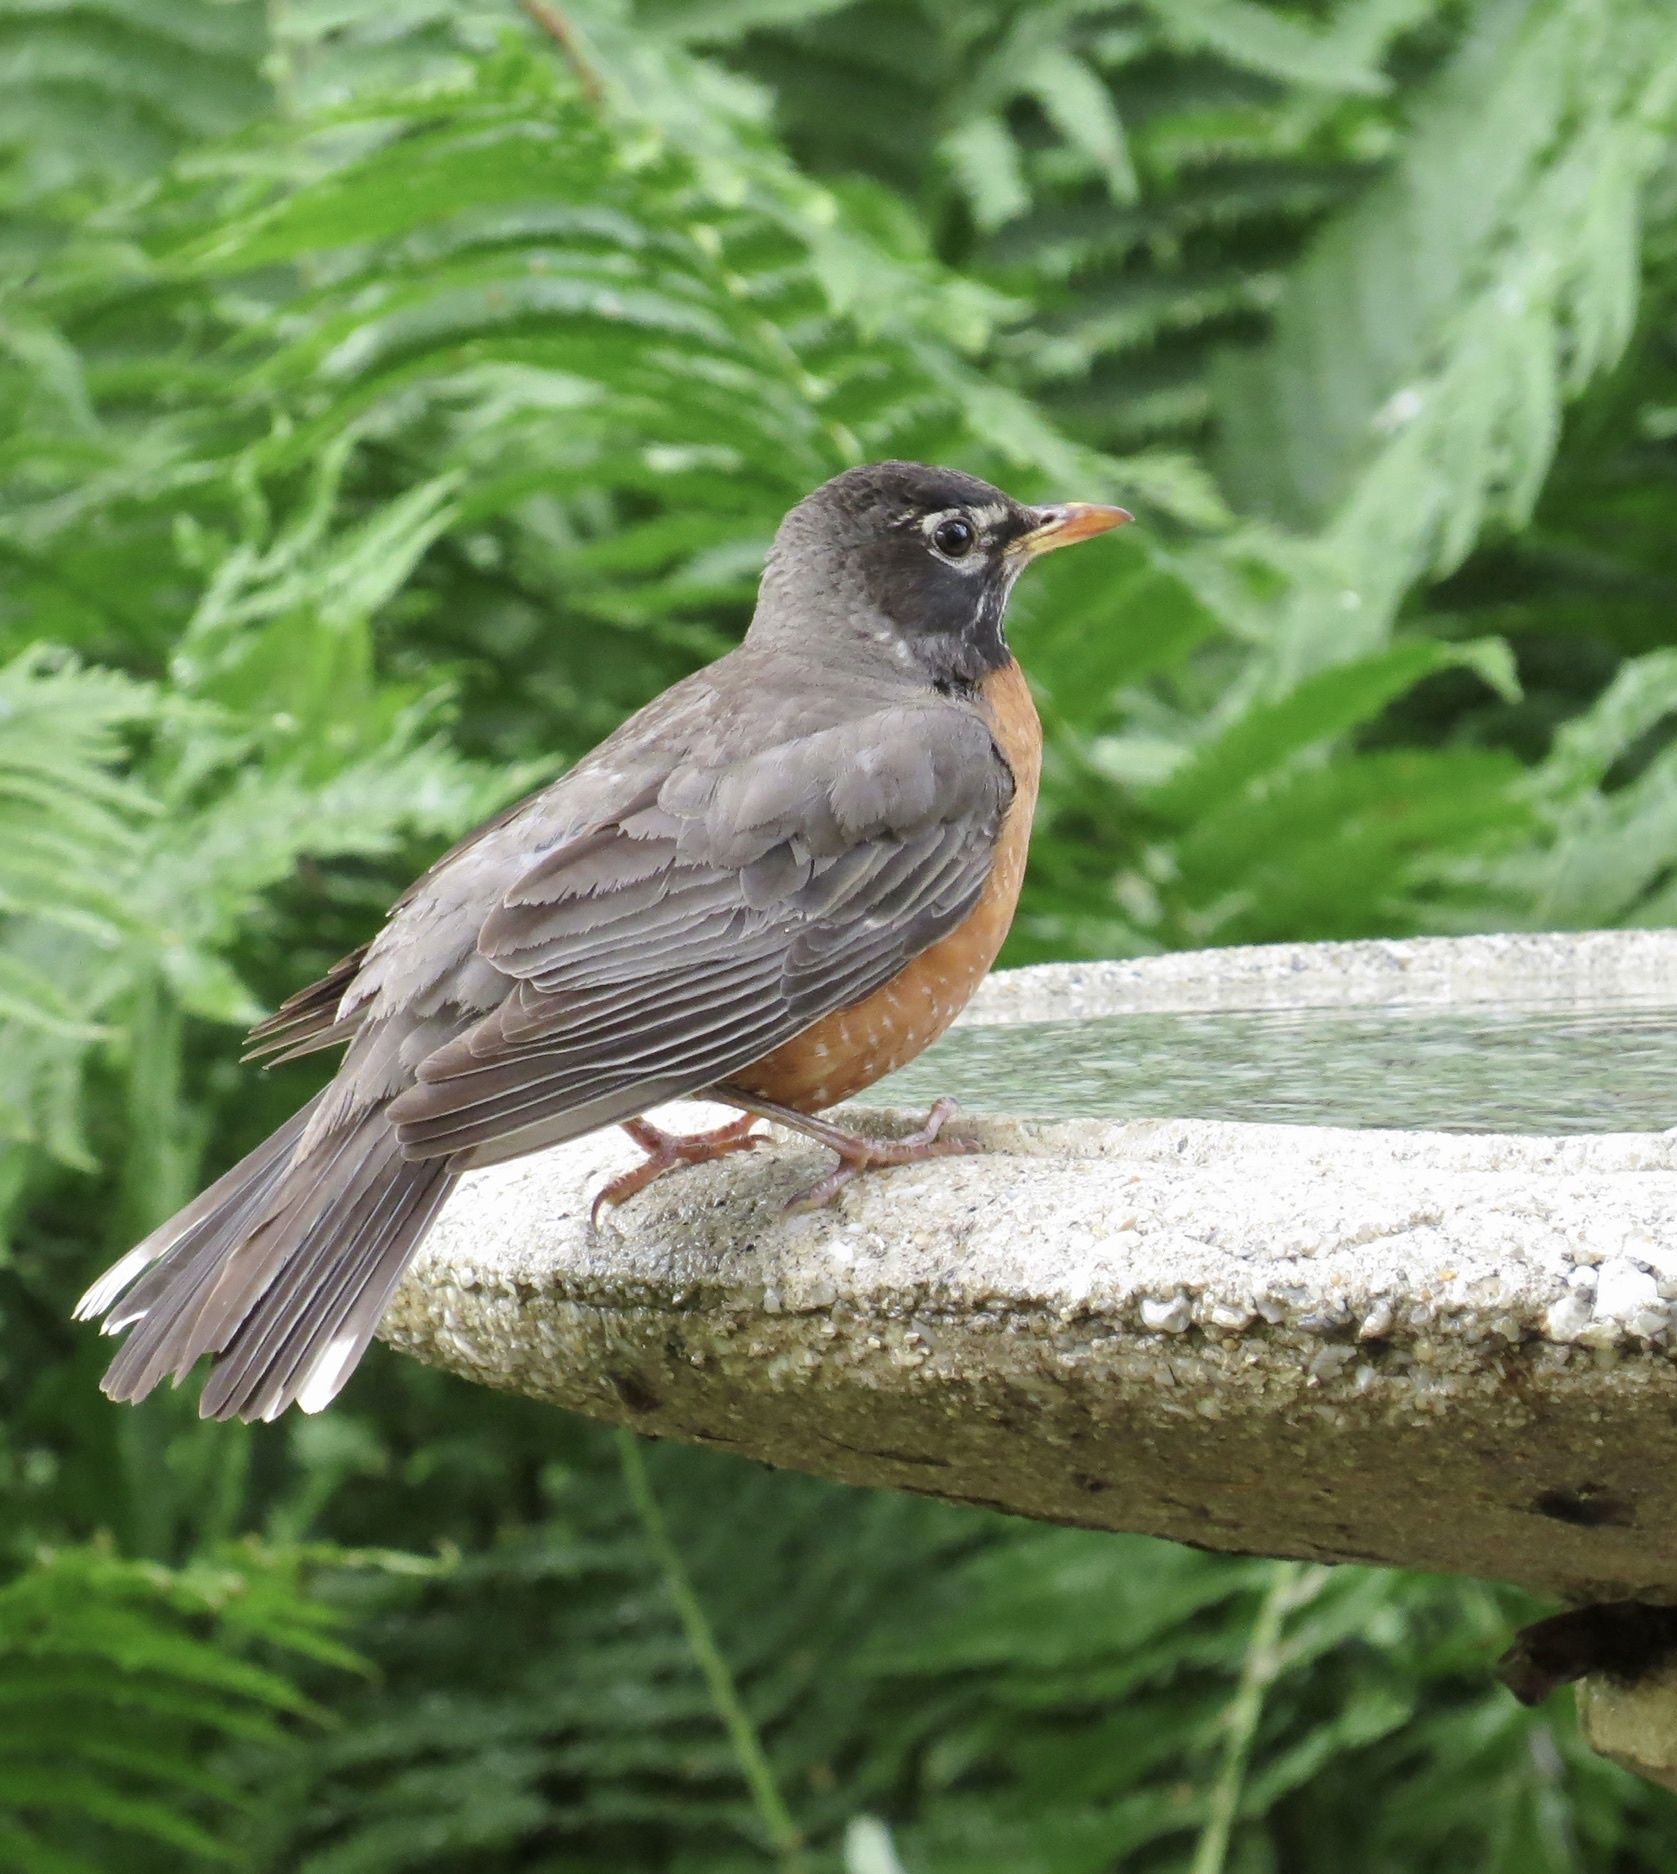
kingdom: Animalia
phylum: Chordata
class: Aves
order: Passeriformes
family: Turdidae
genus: Turdus
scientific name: Turdus migratorius
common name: American robin
